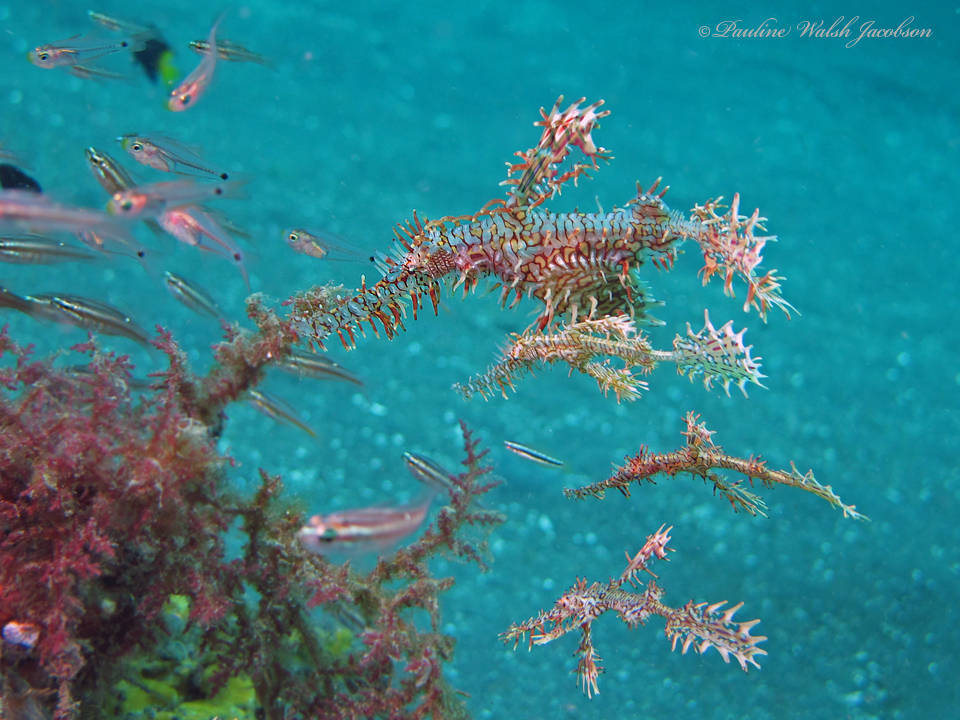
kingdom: Animalia
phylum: Chordata
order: Syngnathiformes
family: Solenostomidae
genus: Solenostomus
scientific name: Solenostomus paradoxus
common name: Ghost pipefish
